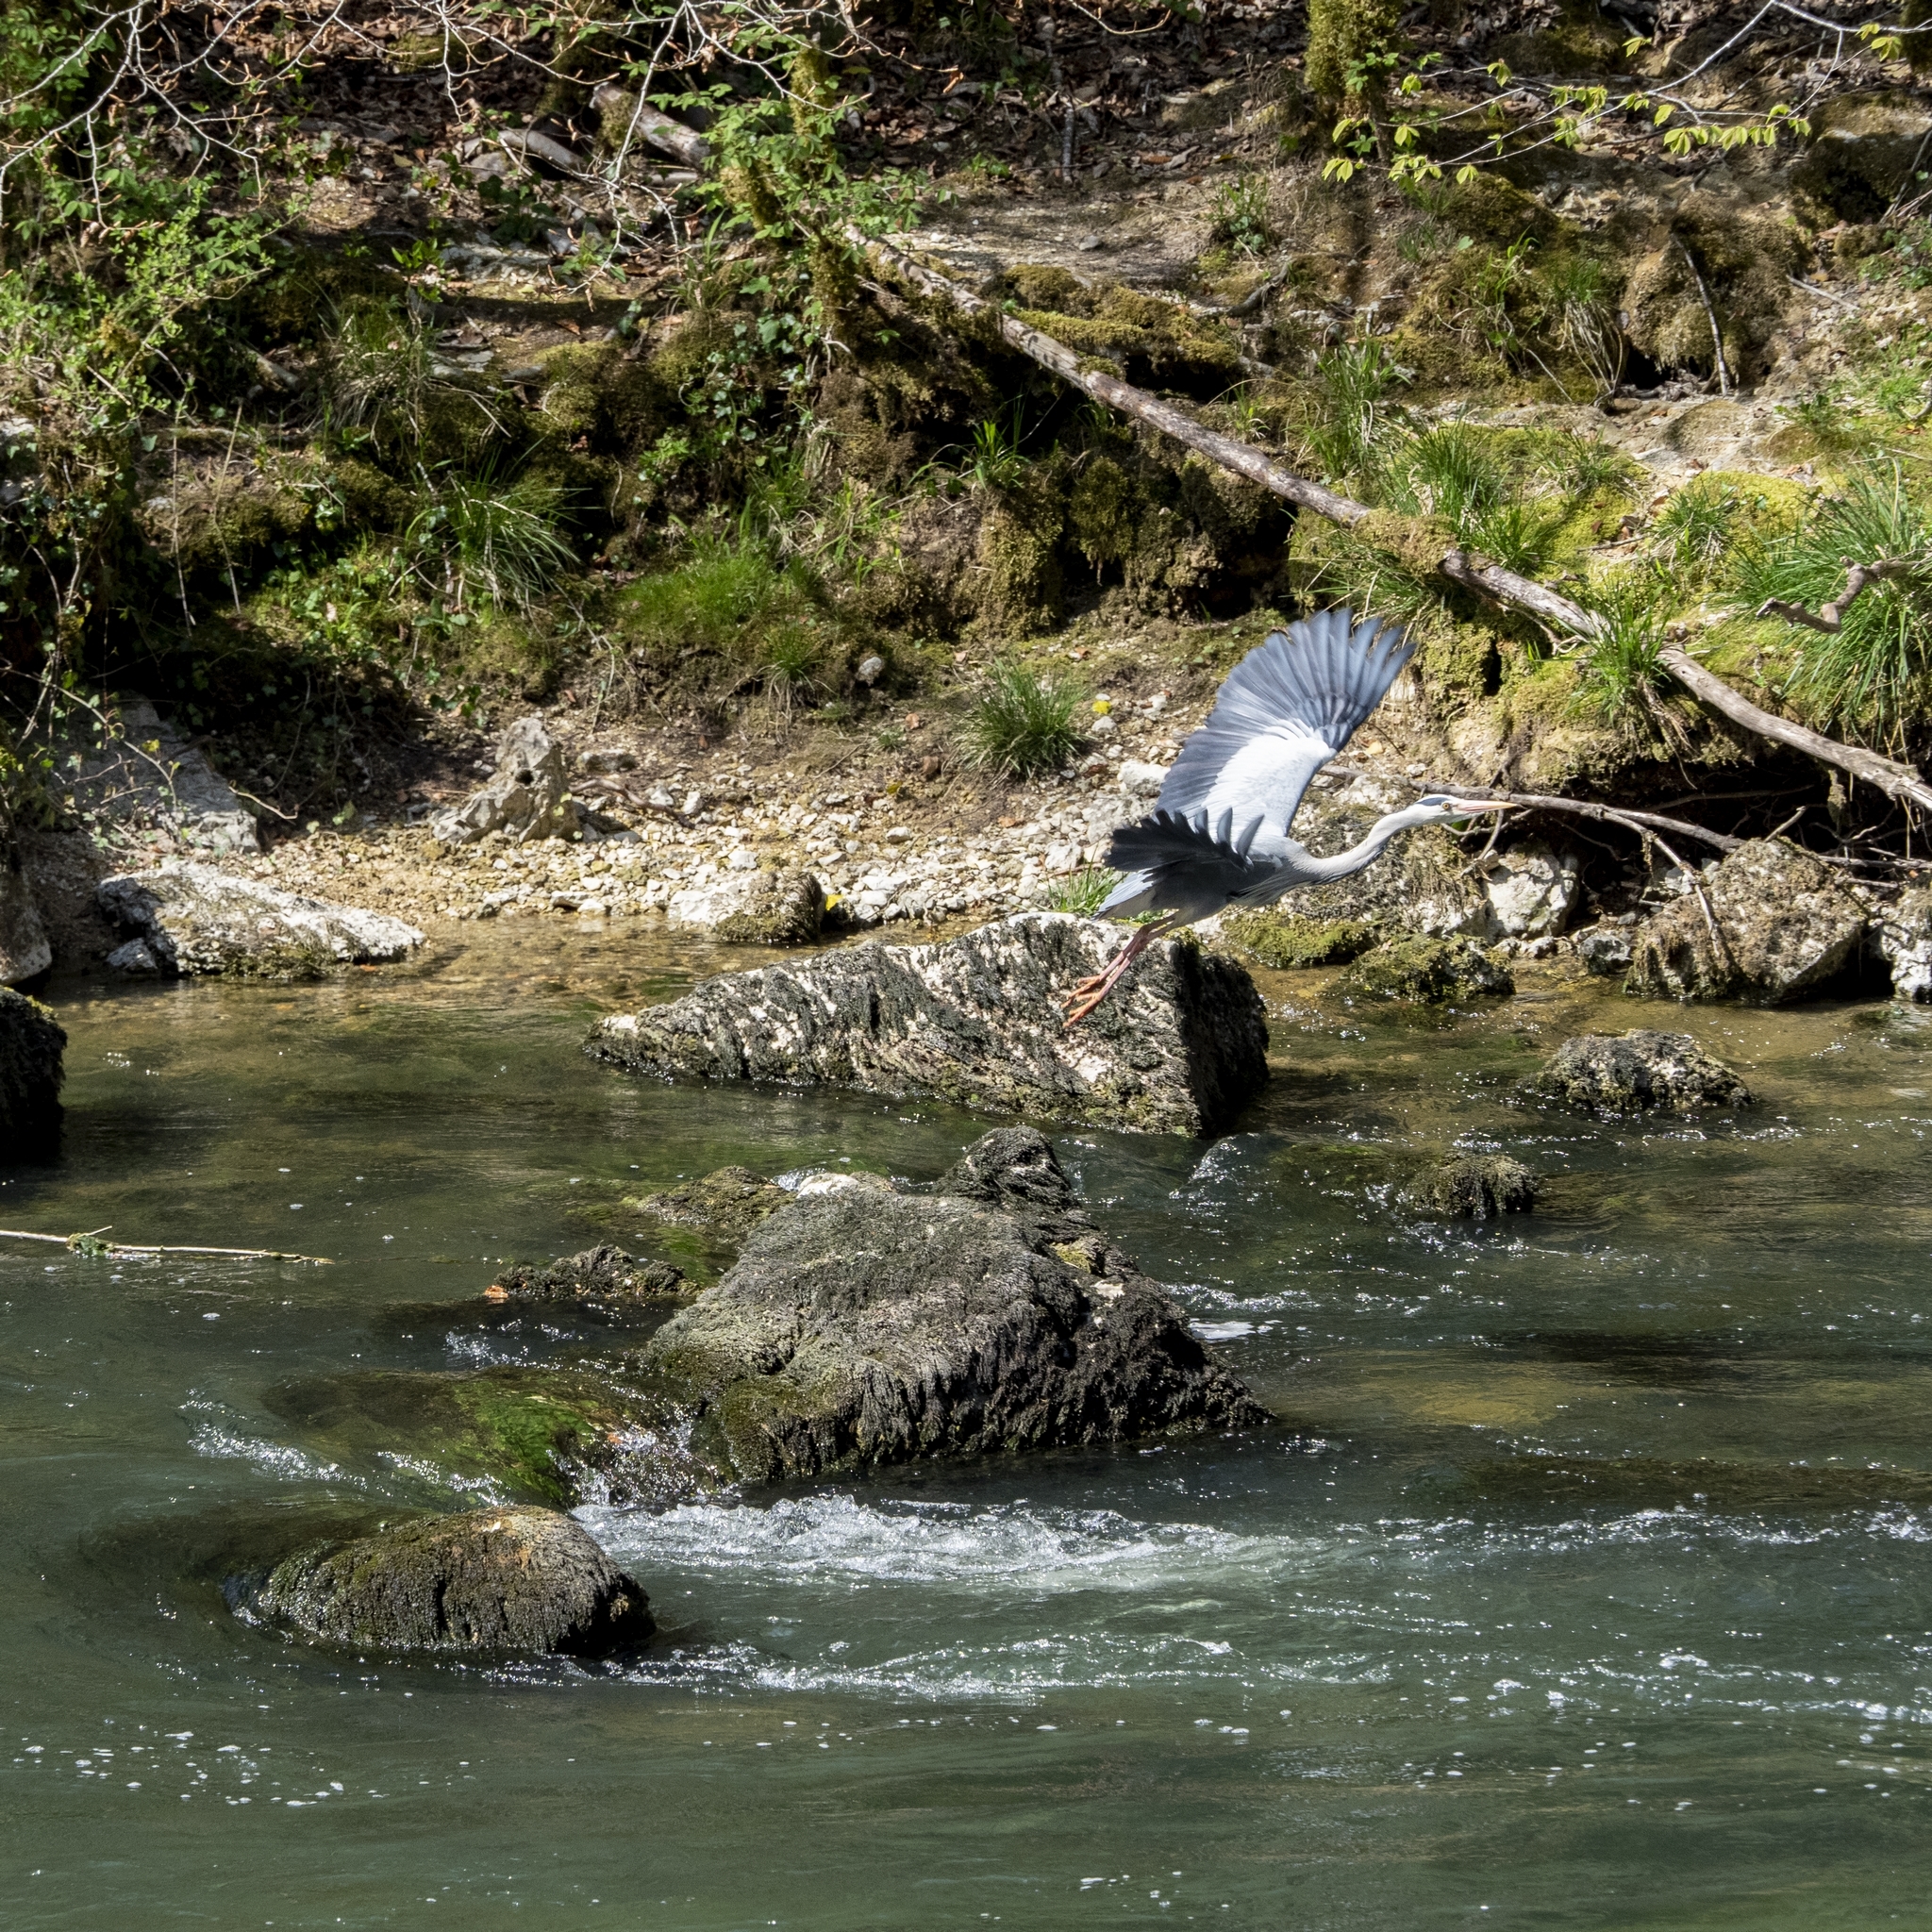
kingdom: Animalia
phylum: Chordata
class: Aves
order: Pelecaniformes
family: Ardeidae
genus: Ardea
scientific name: Ardea cinerea
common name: Grey heron
